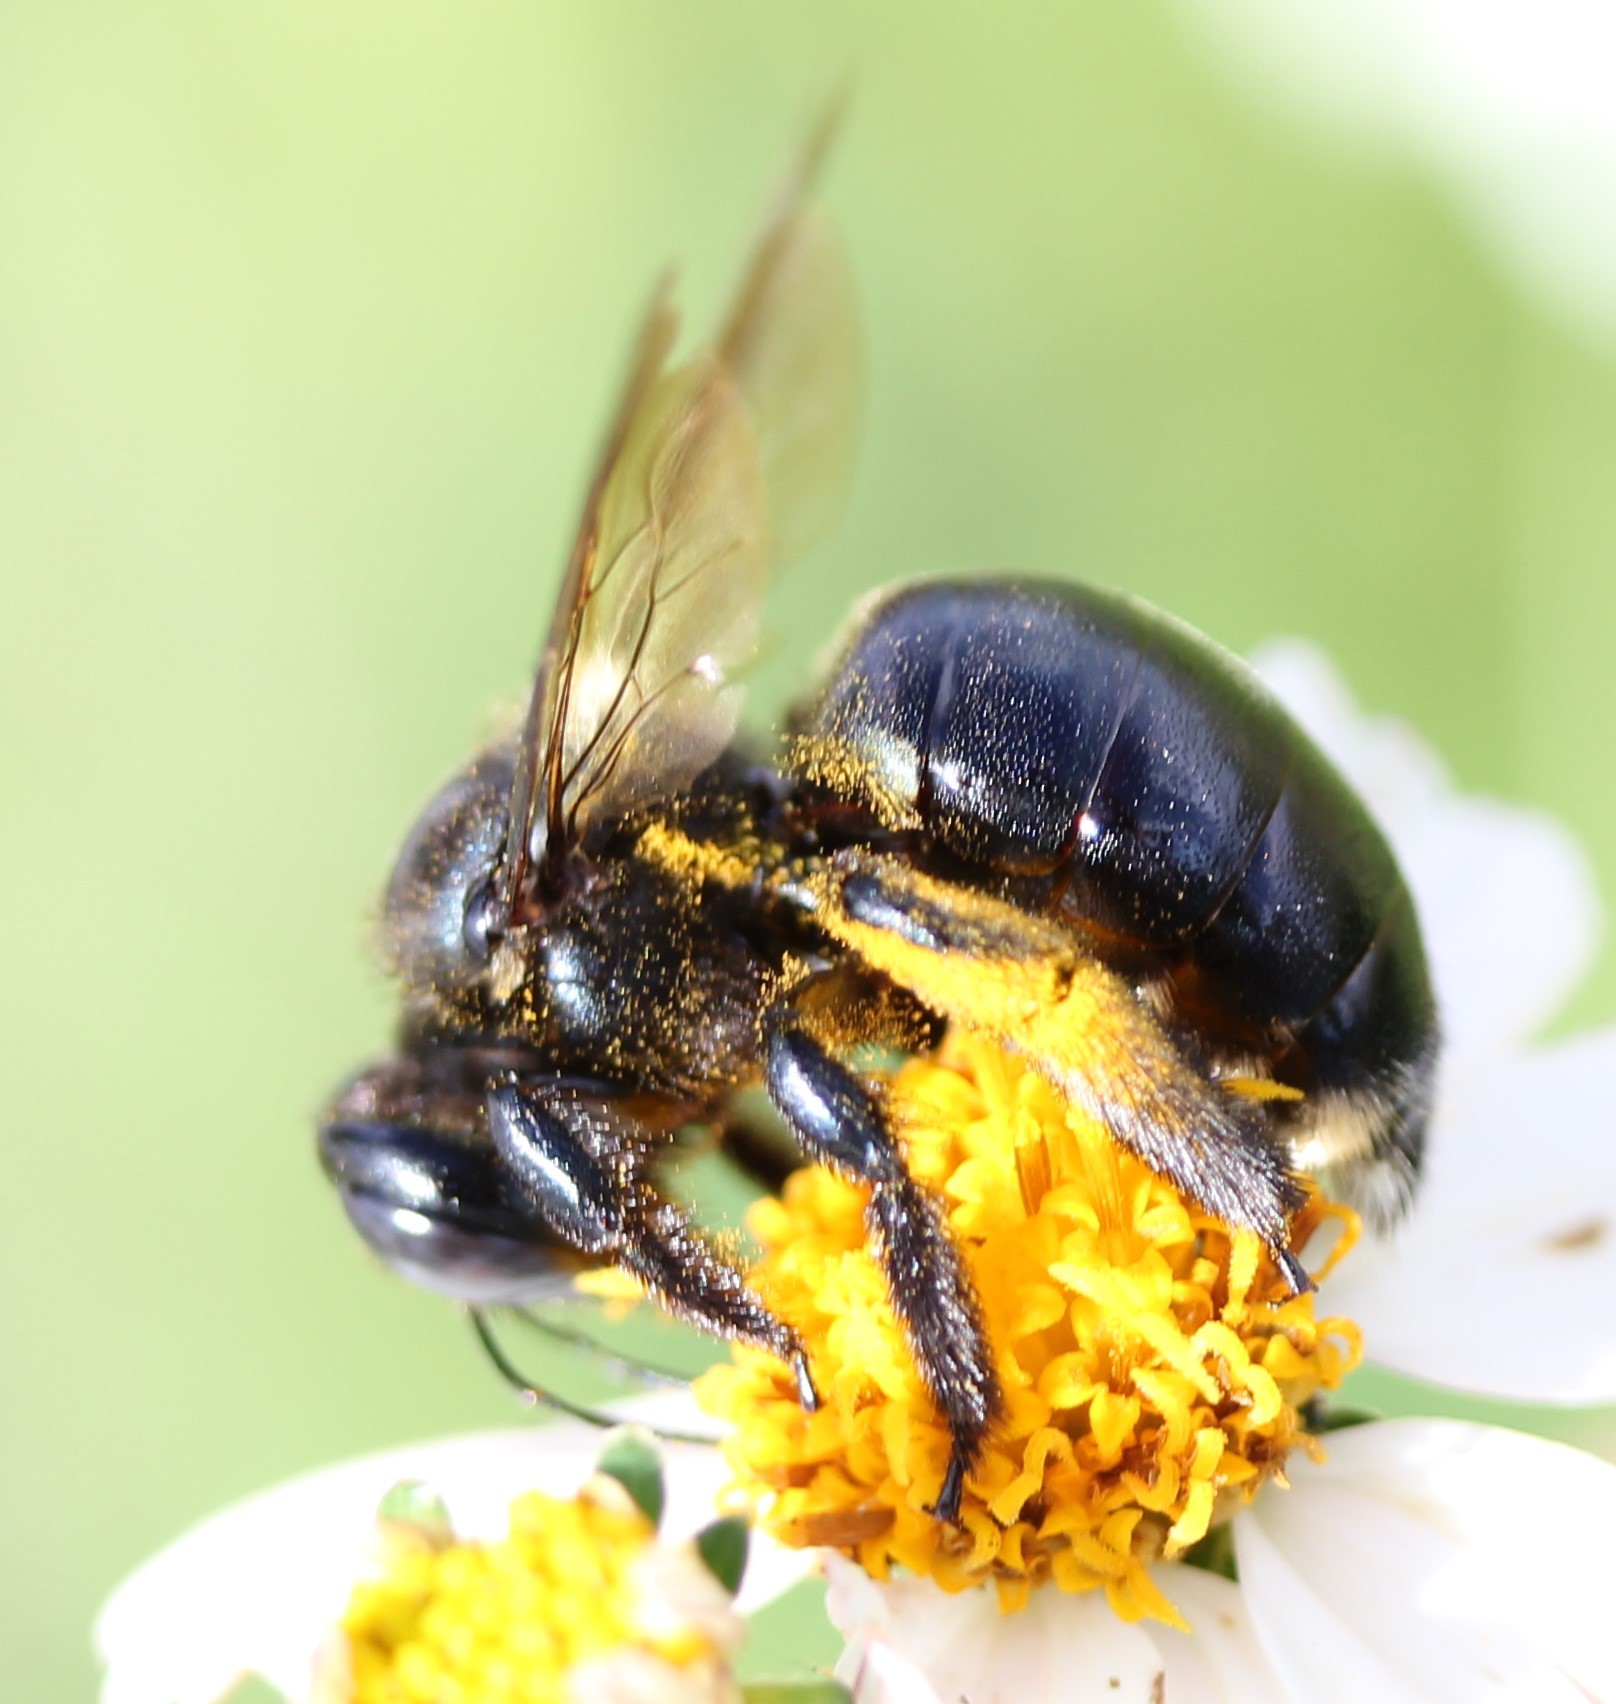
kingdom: Animalia
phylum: Arthropoda
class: Insecta
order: Hymenoptera
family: Apidae
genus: Xylocopa
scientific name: Xylocopa micans
